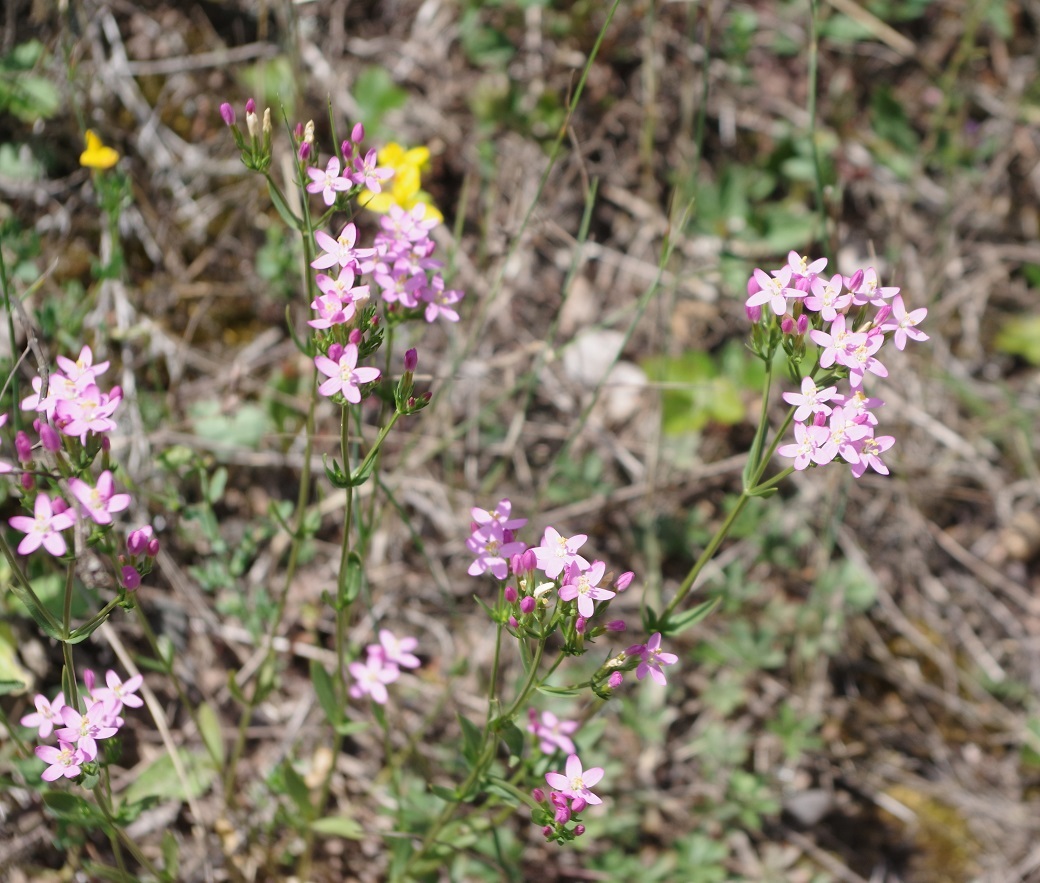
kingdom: Plantae
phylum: Tracheophyta
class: Magnoliopsida
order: Gentianales
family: Gentianaceae
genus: Centaurium
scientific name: Centaurium erythraea
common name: Common centaury
